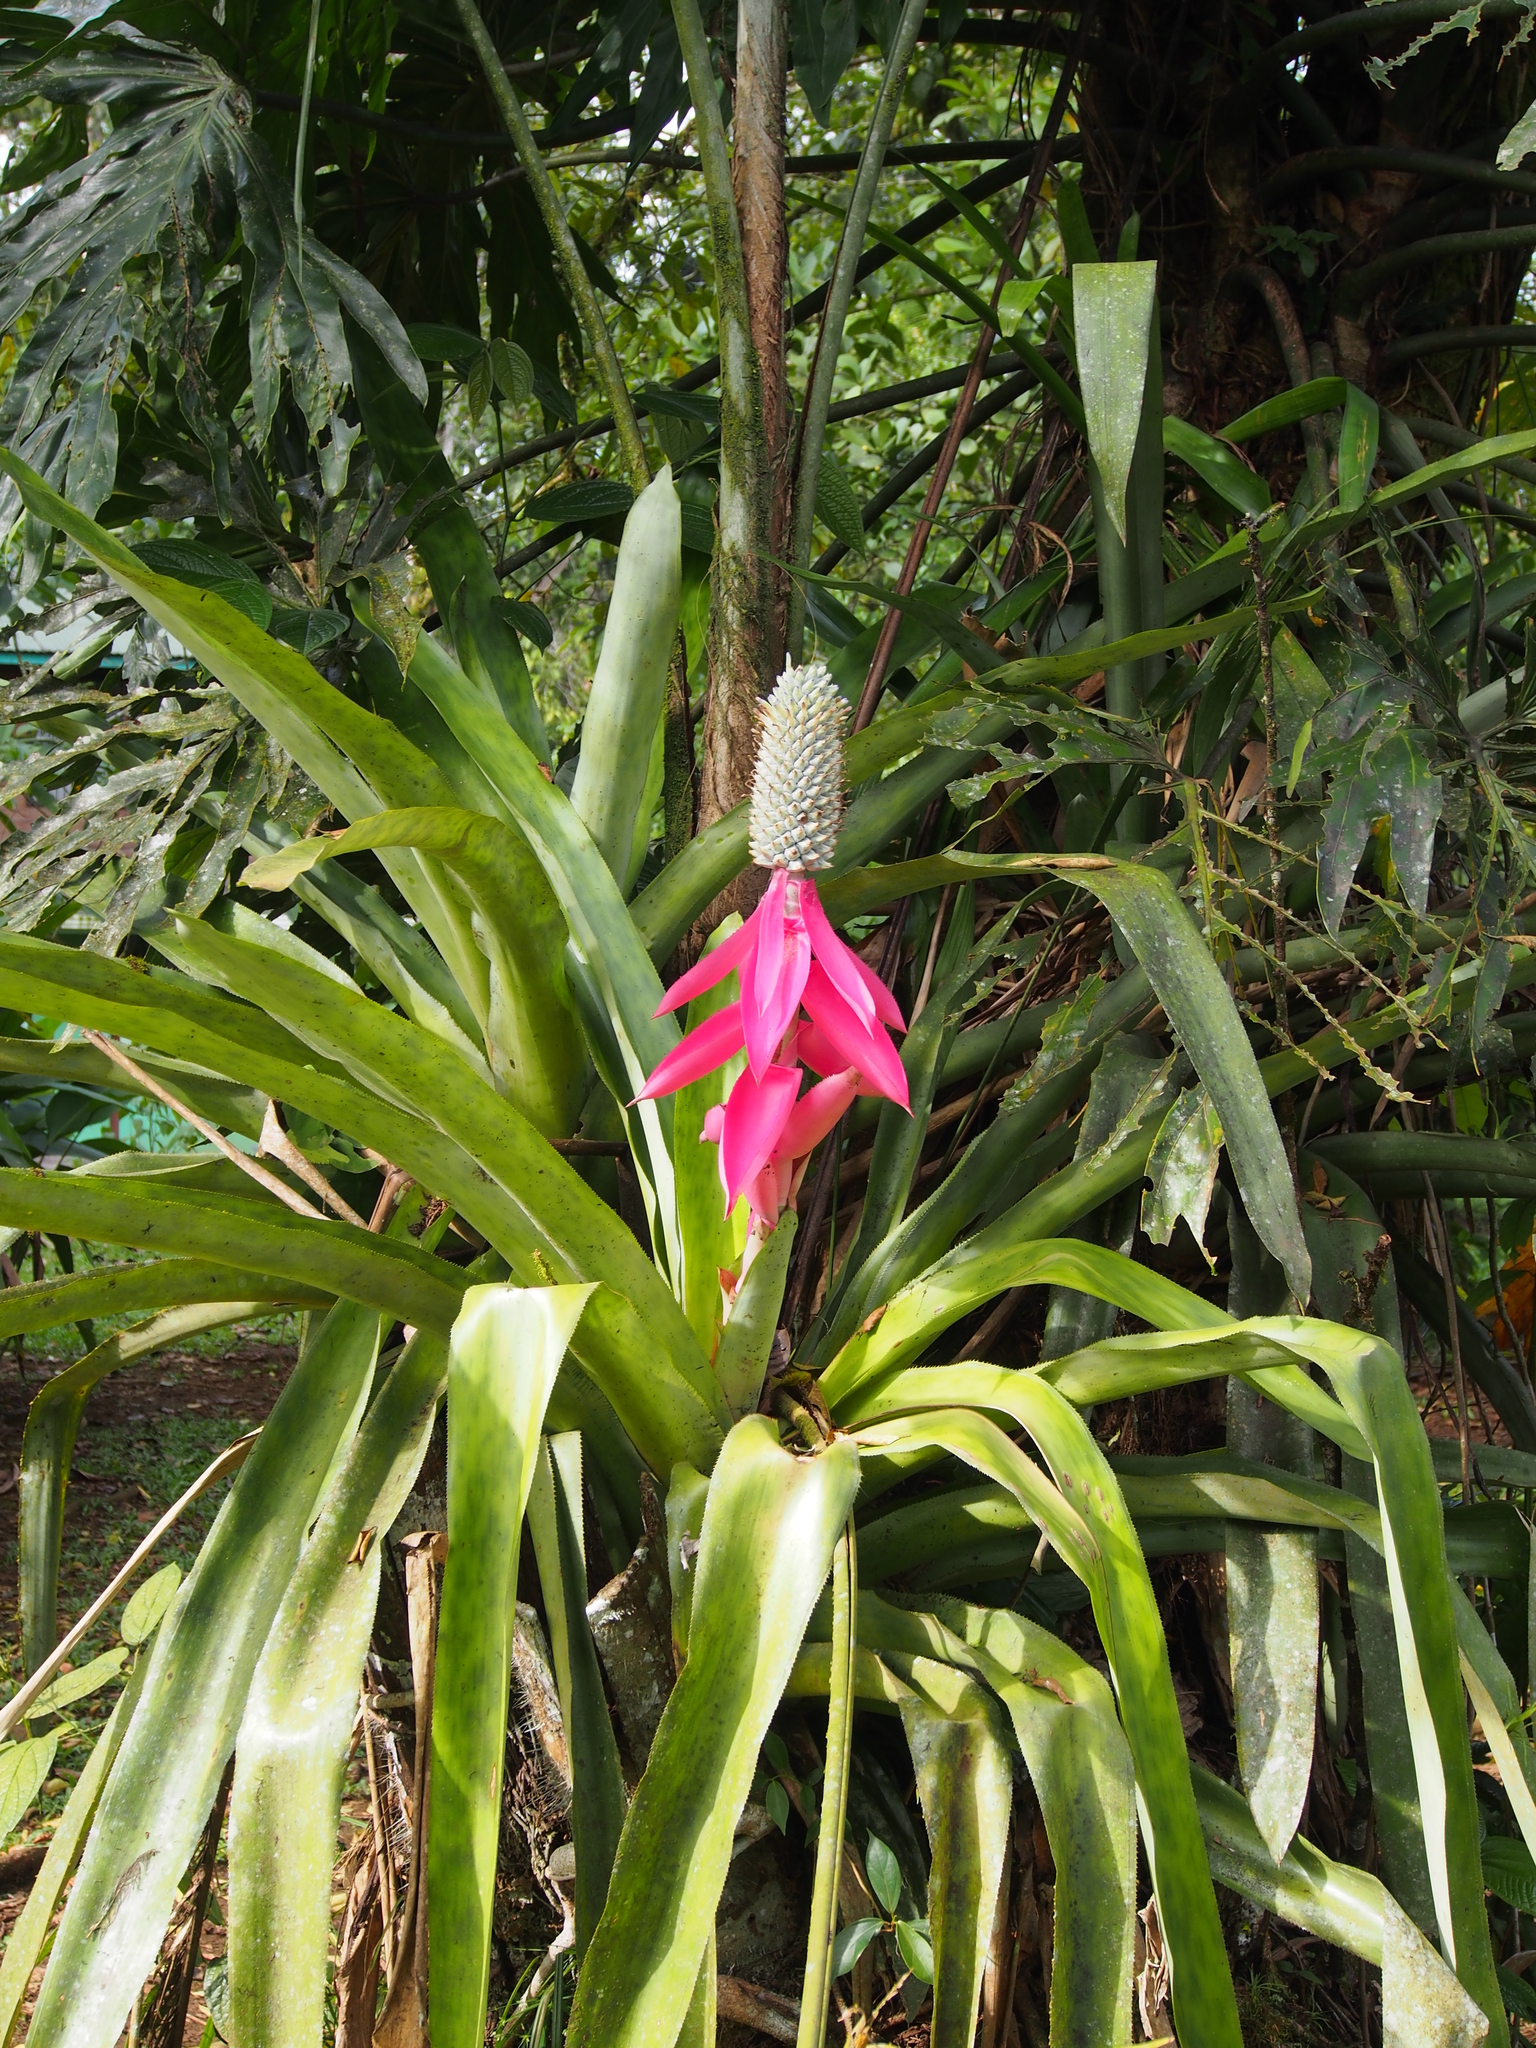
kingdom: Plantae
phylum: Tracheophyta
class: Liliopsida
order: Poales
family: Bromeliaceae
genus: Aechmea
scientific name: Aechmea mariae-reginae
